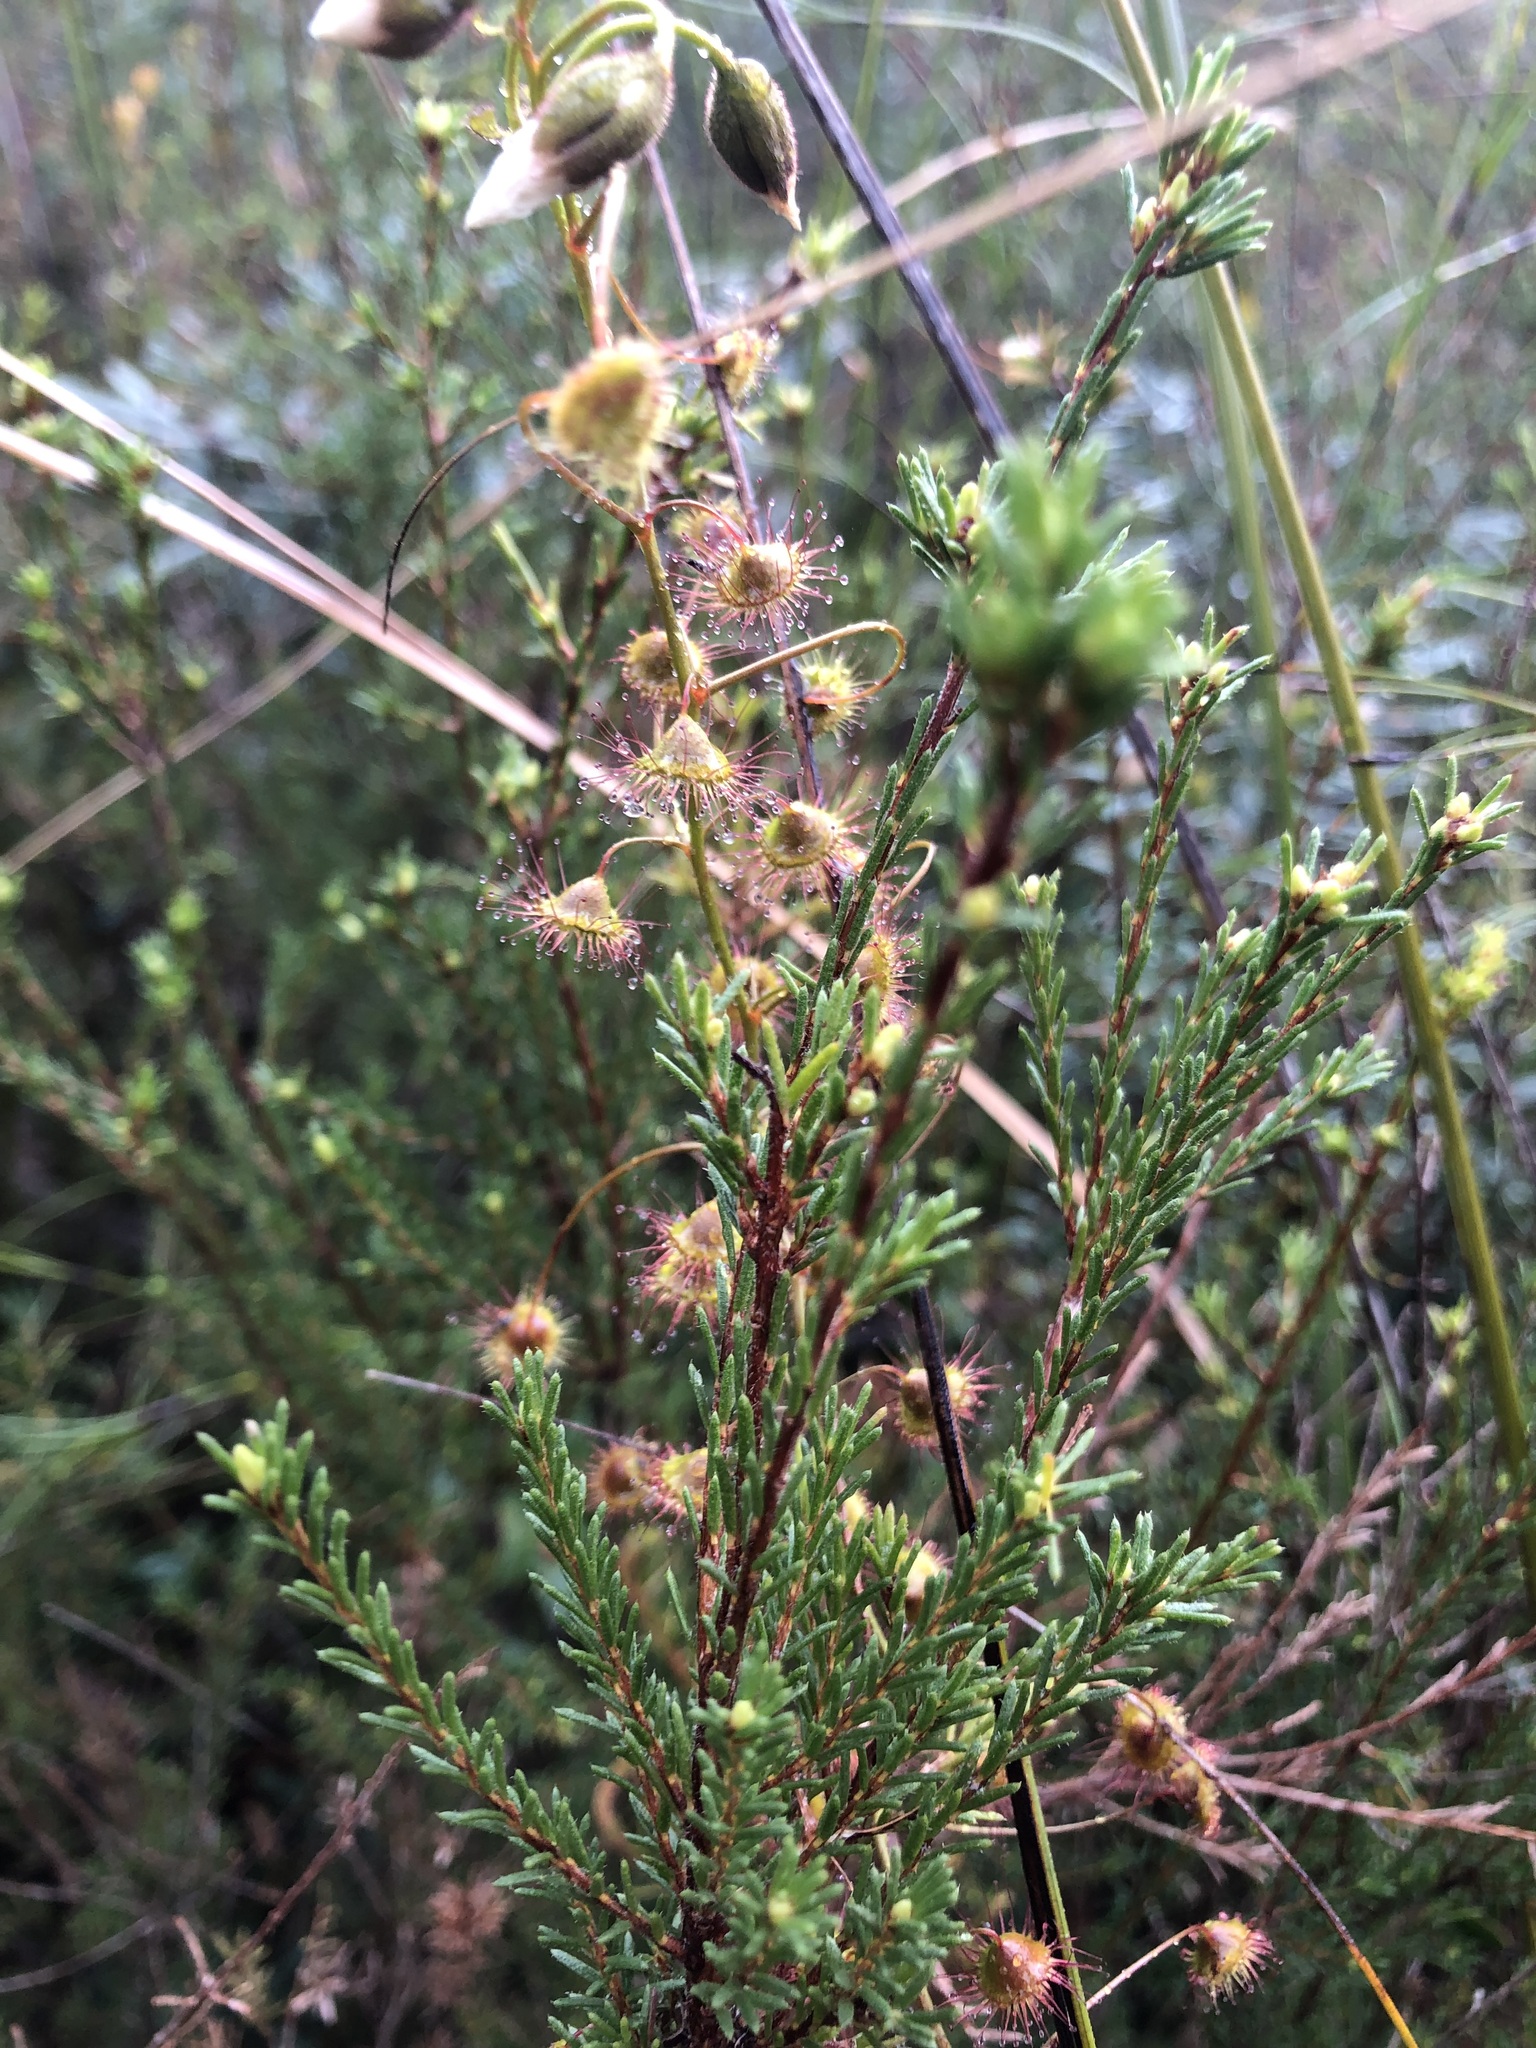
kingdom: Plantae
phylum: Tracheophyta
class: Magnoliopsida
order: Caryophyllales
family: Droseraceae
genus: Drosera
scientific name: Drosera planchonii
